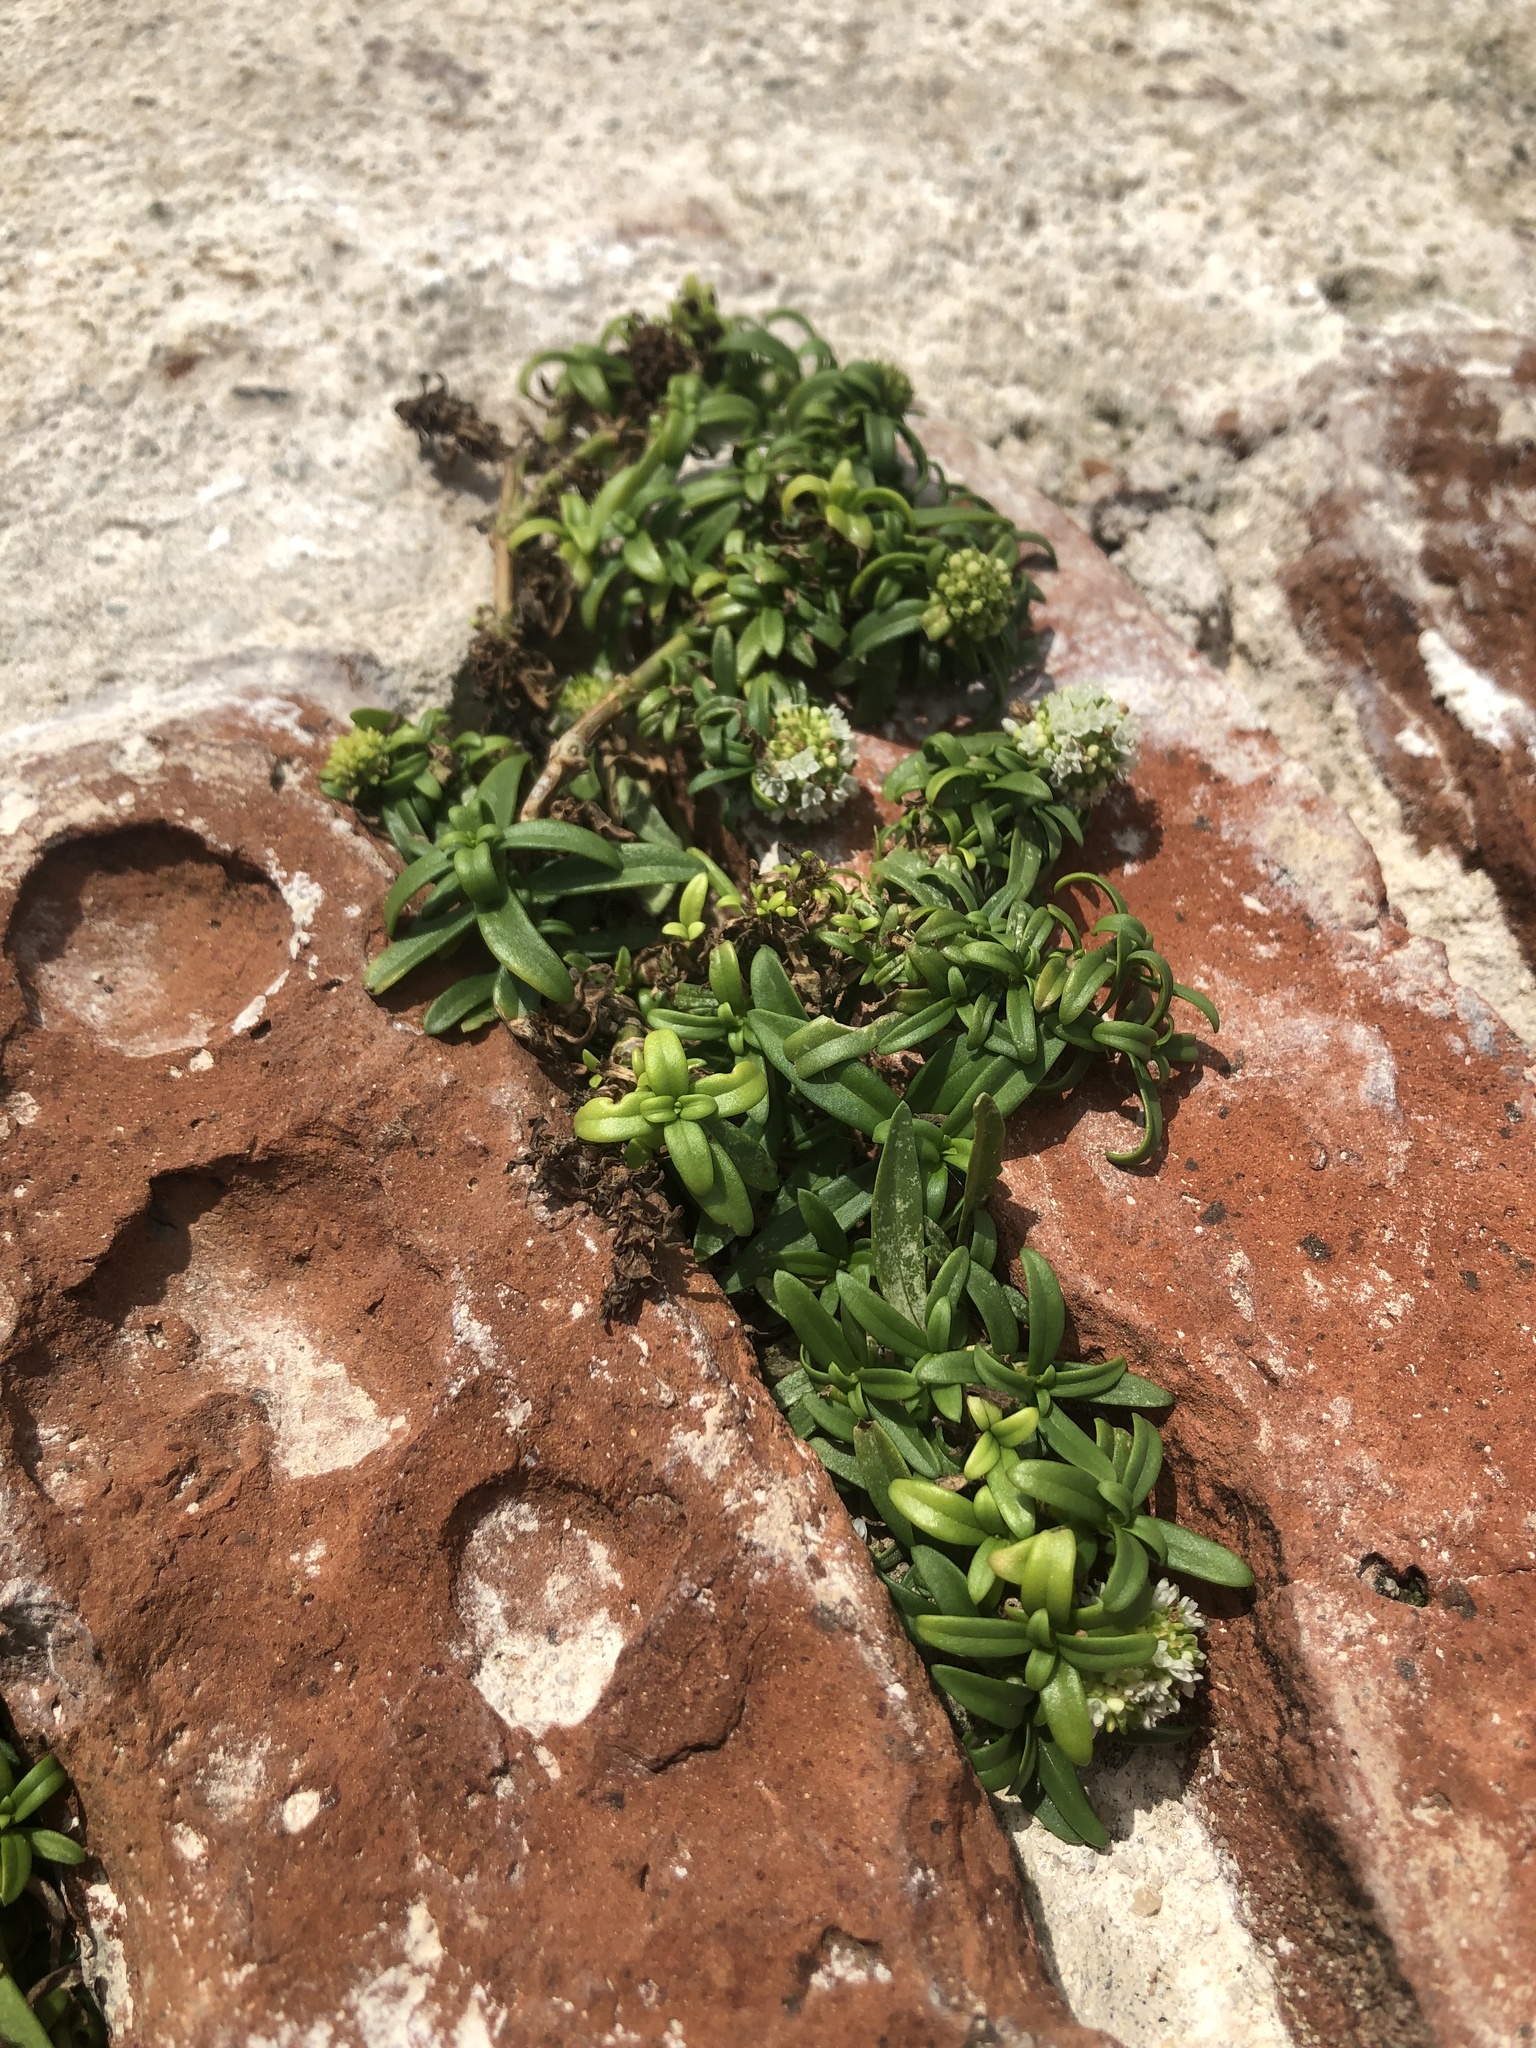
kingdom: Plantae
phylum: Tracheophyta
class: Magnoliopsida
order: Gentianales
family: Rubiaceae
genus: Spermacoce
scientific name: Spermacoce verticillata
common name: Shrubby false buttonweed
